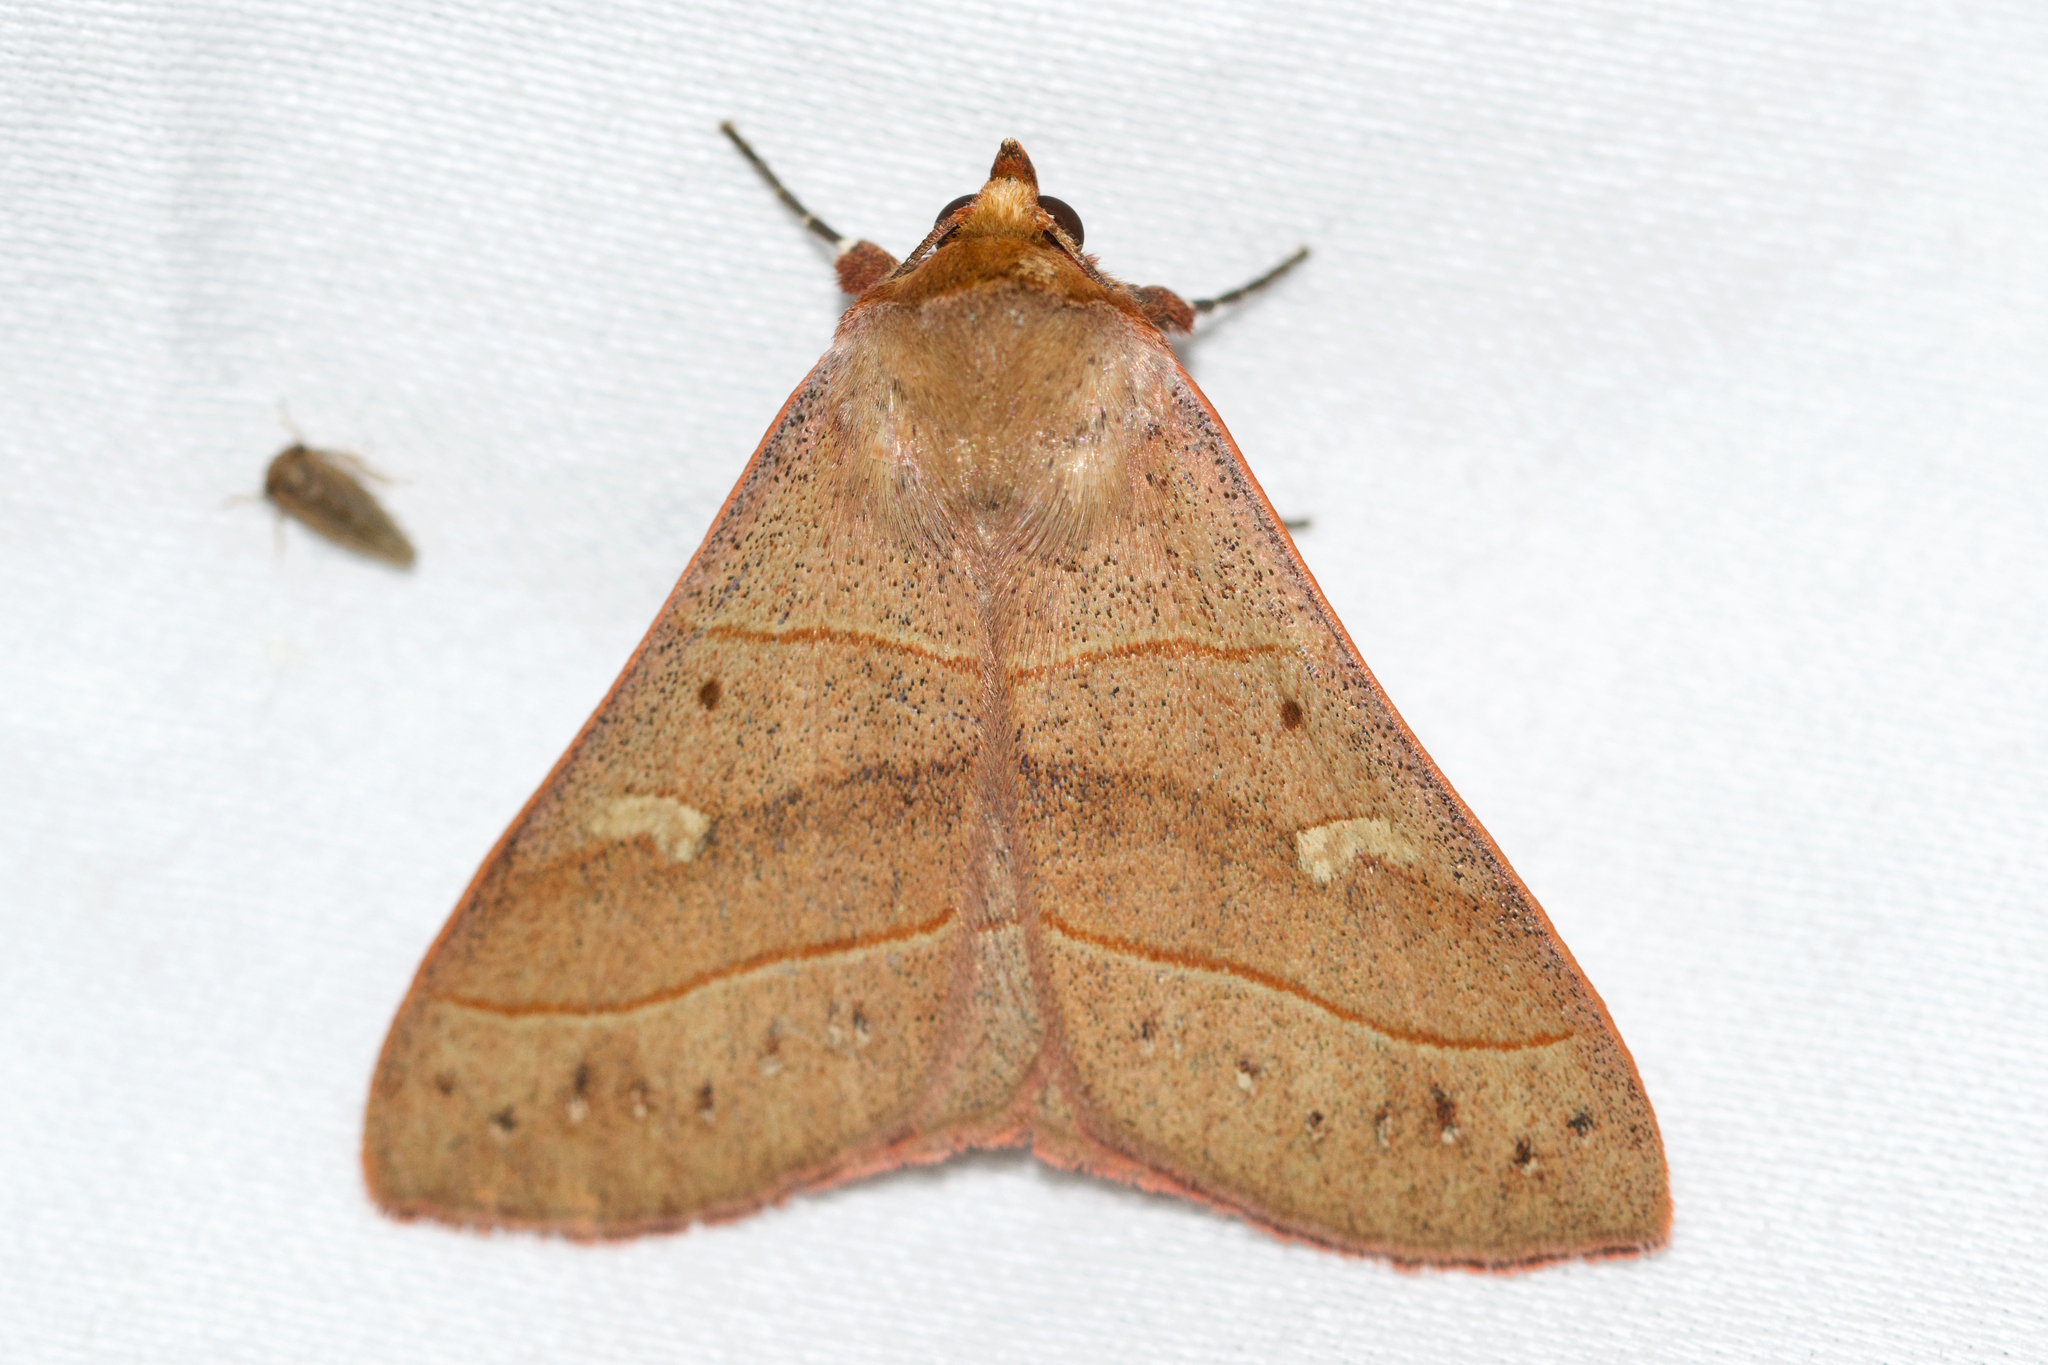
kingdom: Animalia
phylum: Arthropoda
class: Insecta
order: Lepidoptera
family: Erebidae
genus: Panopoda
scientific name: Panopoda rufimargo
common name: Red-lined panopoda moth
